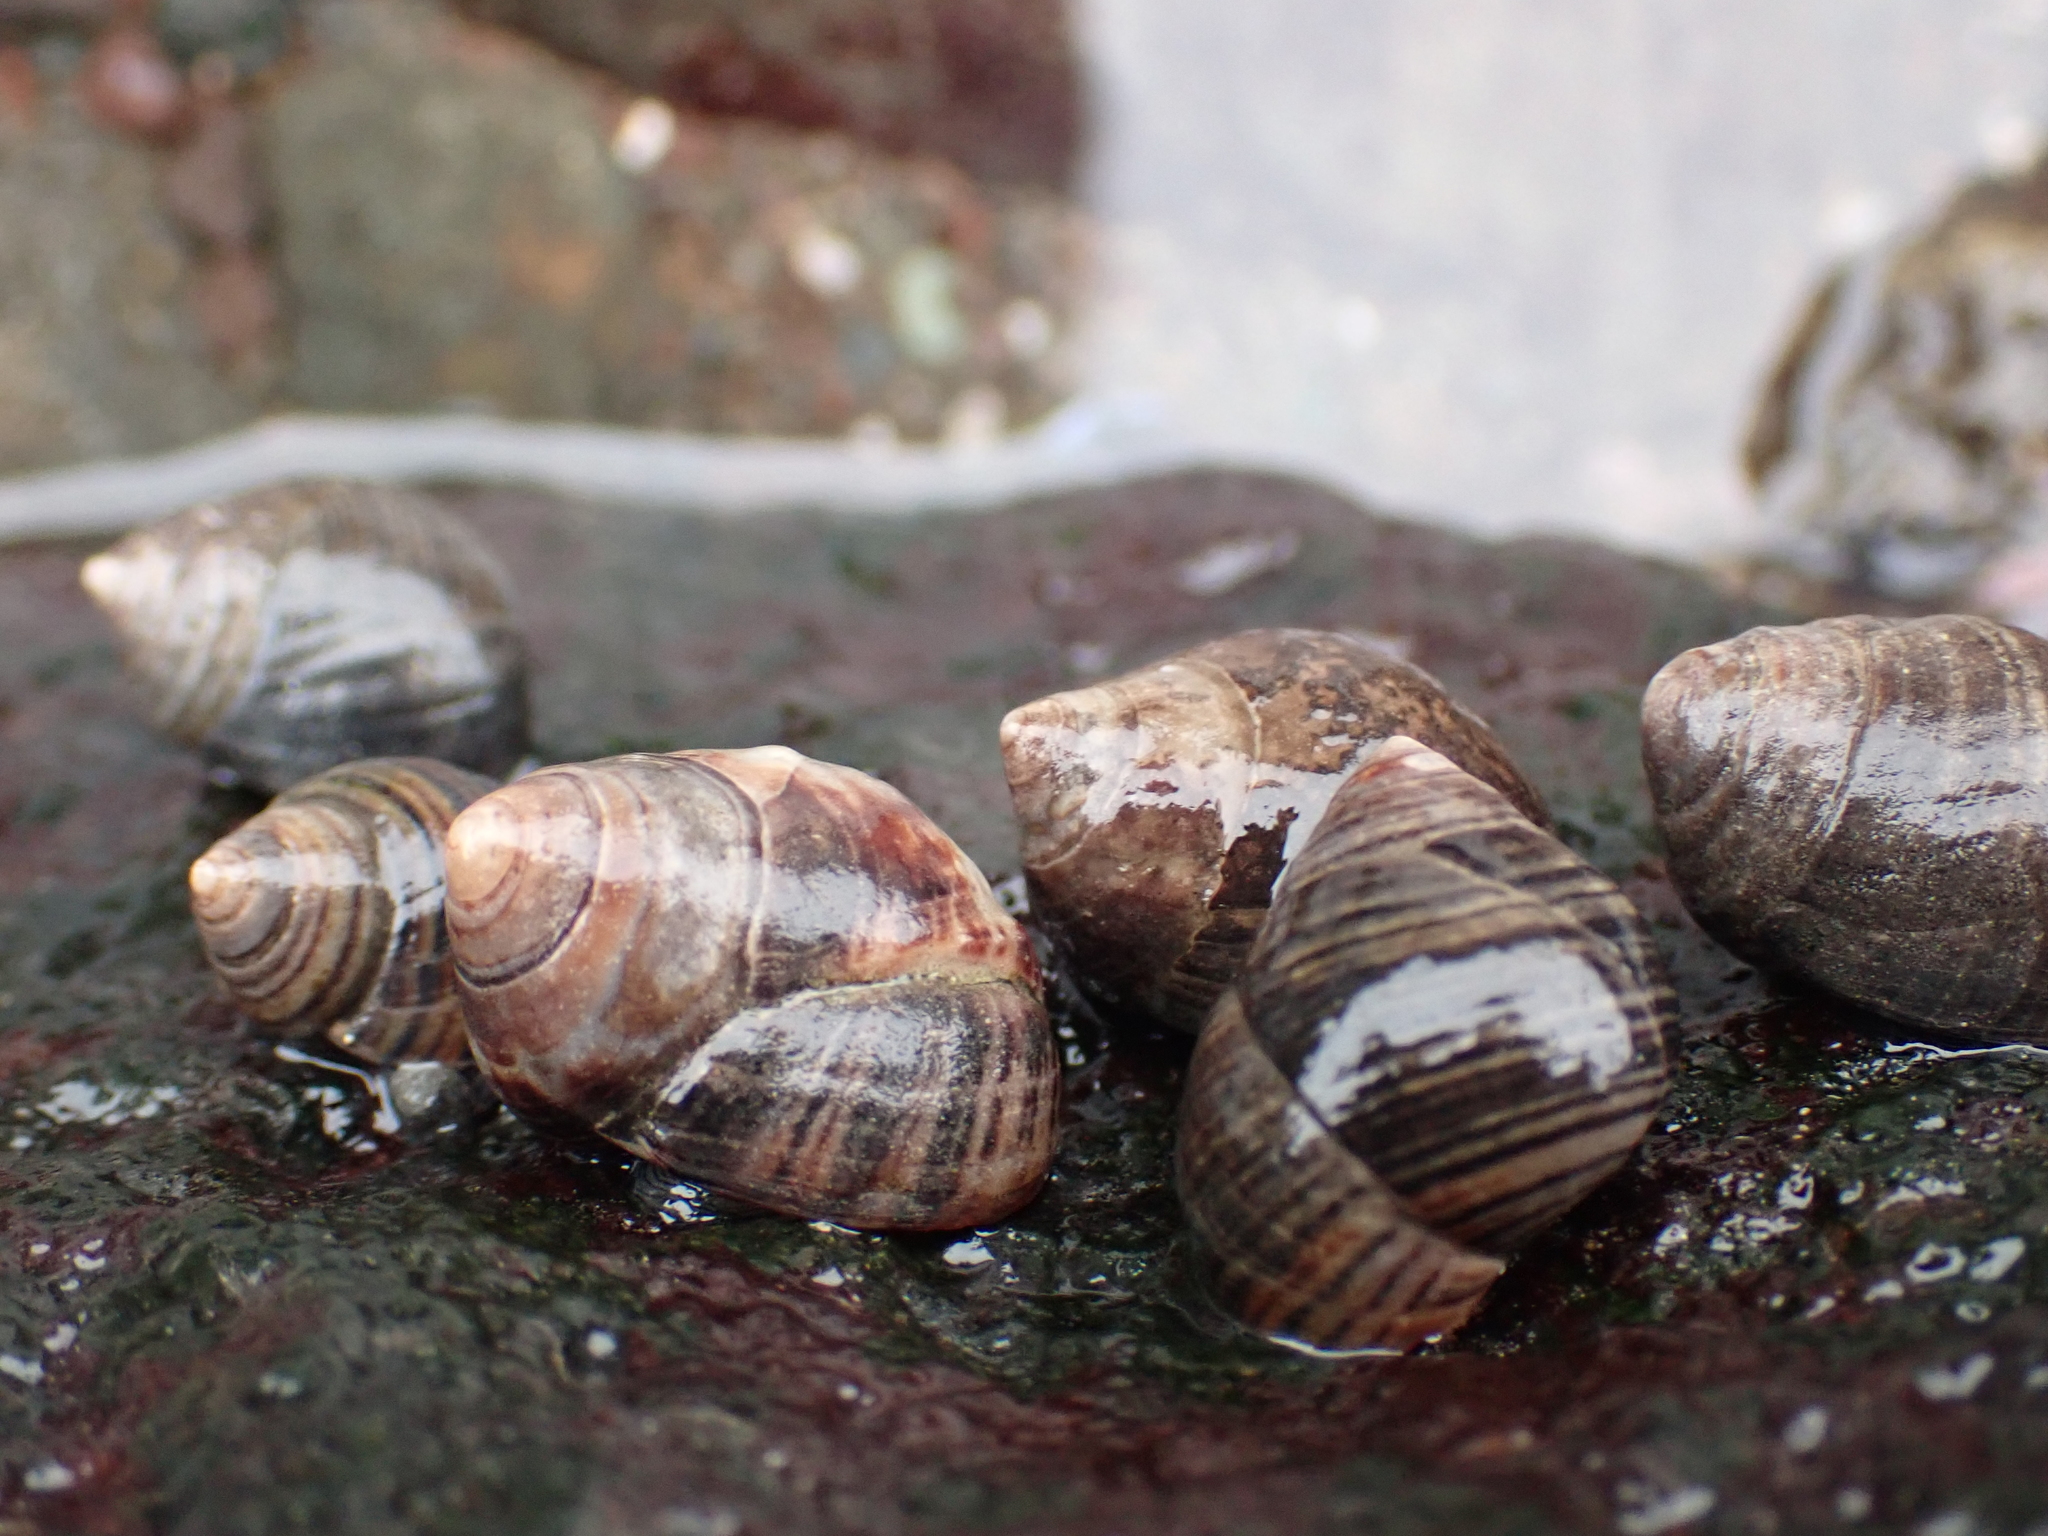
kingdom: Animalia
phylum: Mollusca
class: Gastropoda
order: Littorinimorpha
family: Littorinidae
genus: Littorina
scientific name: Littorina littorea
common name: Common periwinkle
